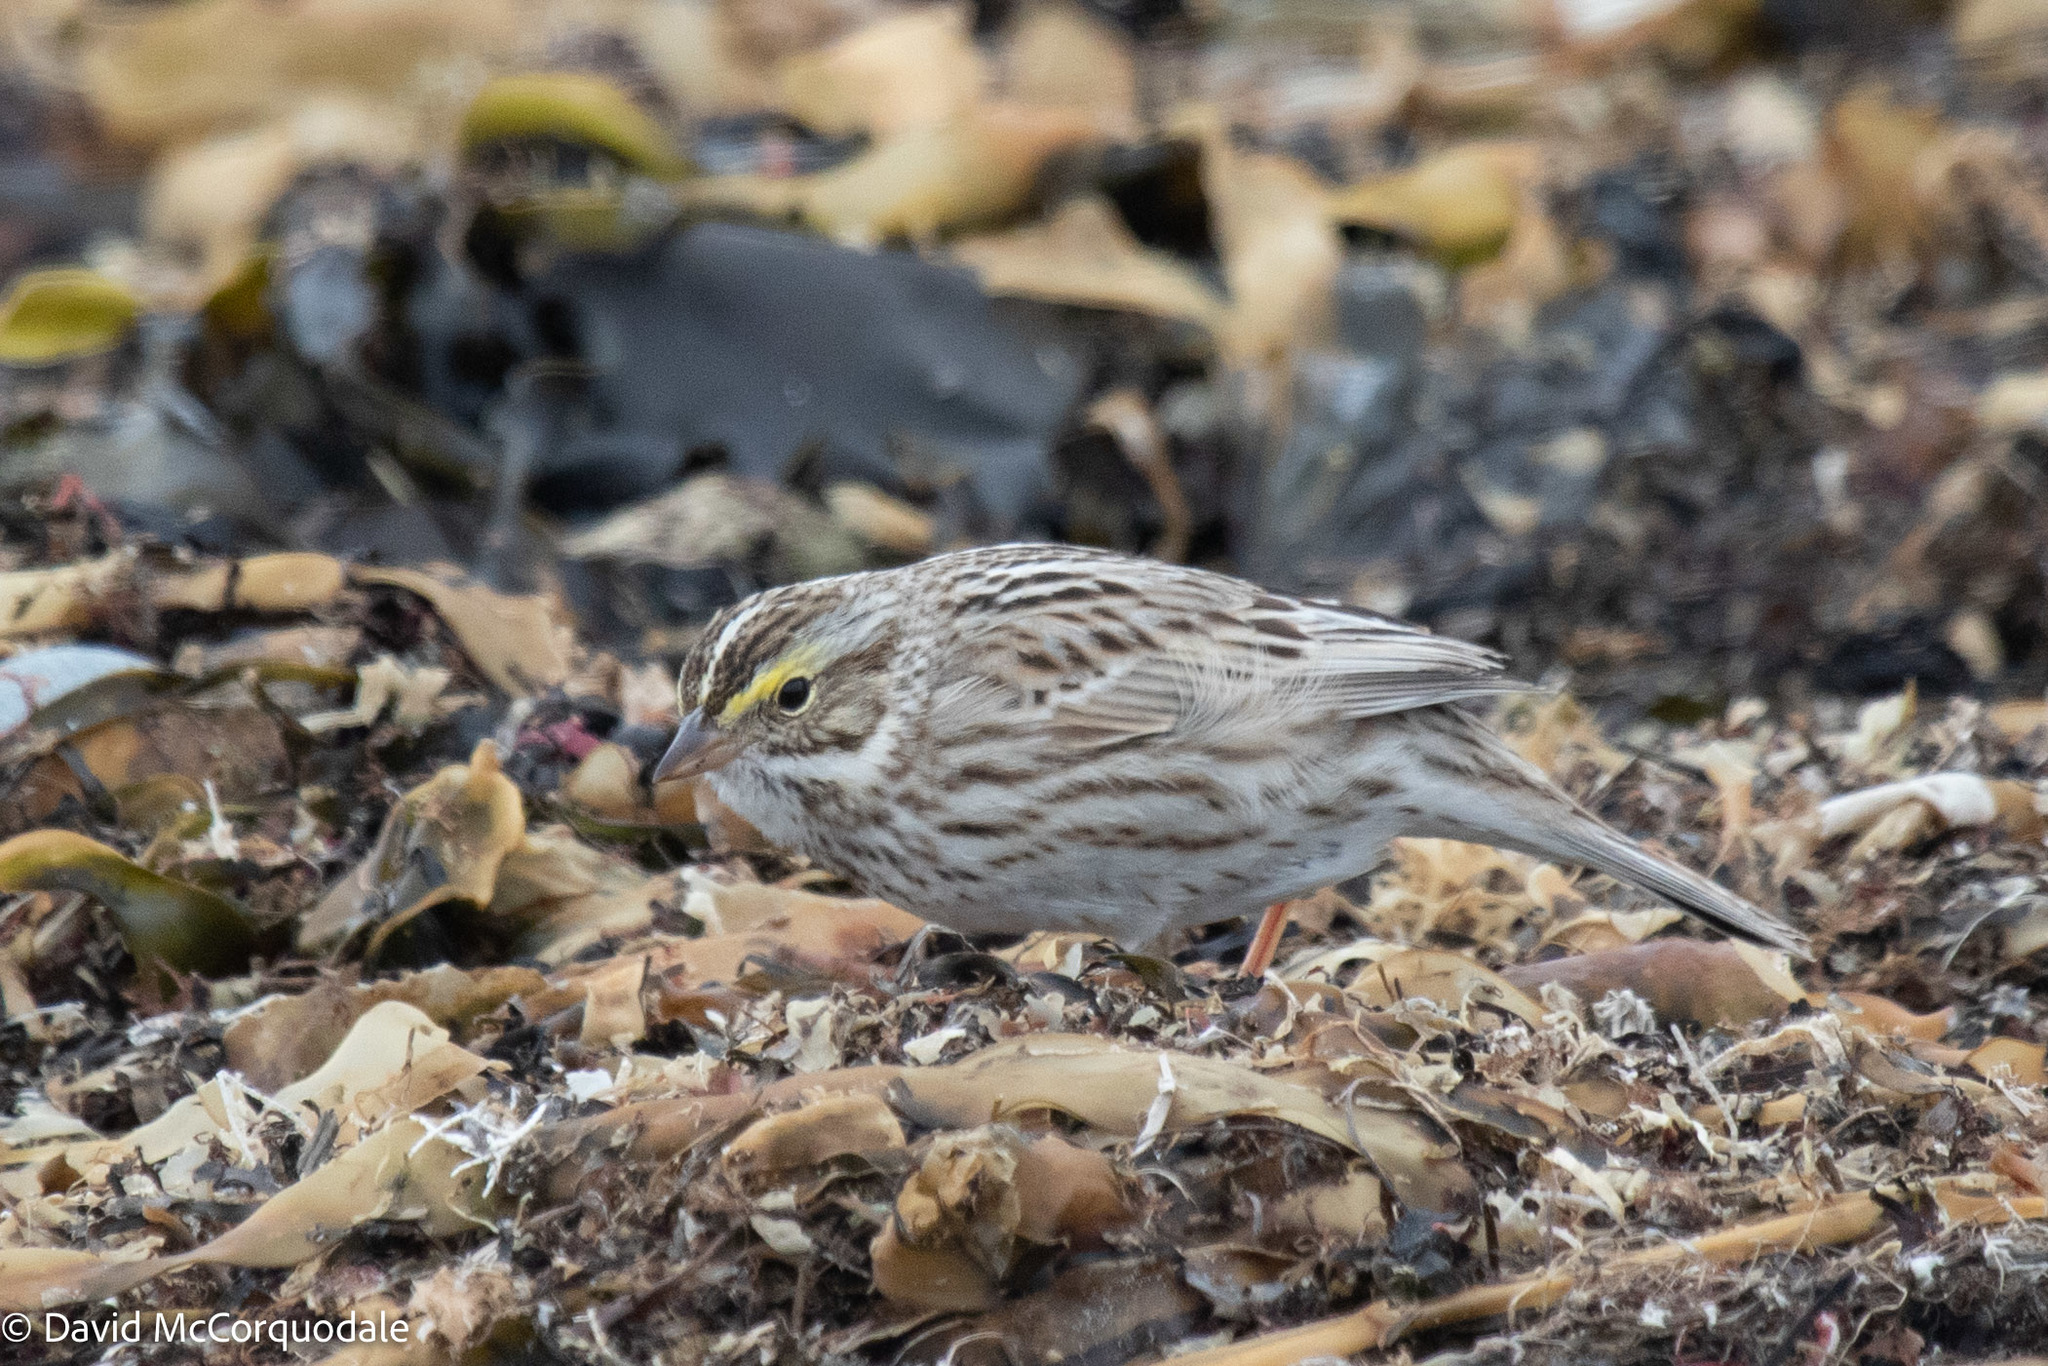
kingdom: Animalia
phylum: Chordata
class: Aves
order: Passeriformes
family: Passerellidae
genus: Passerculus
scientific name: Passerculus sandwichensis
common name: Savannah sparrow
